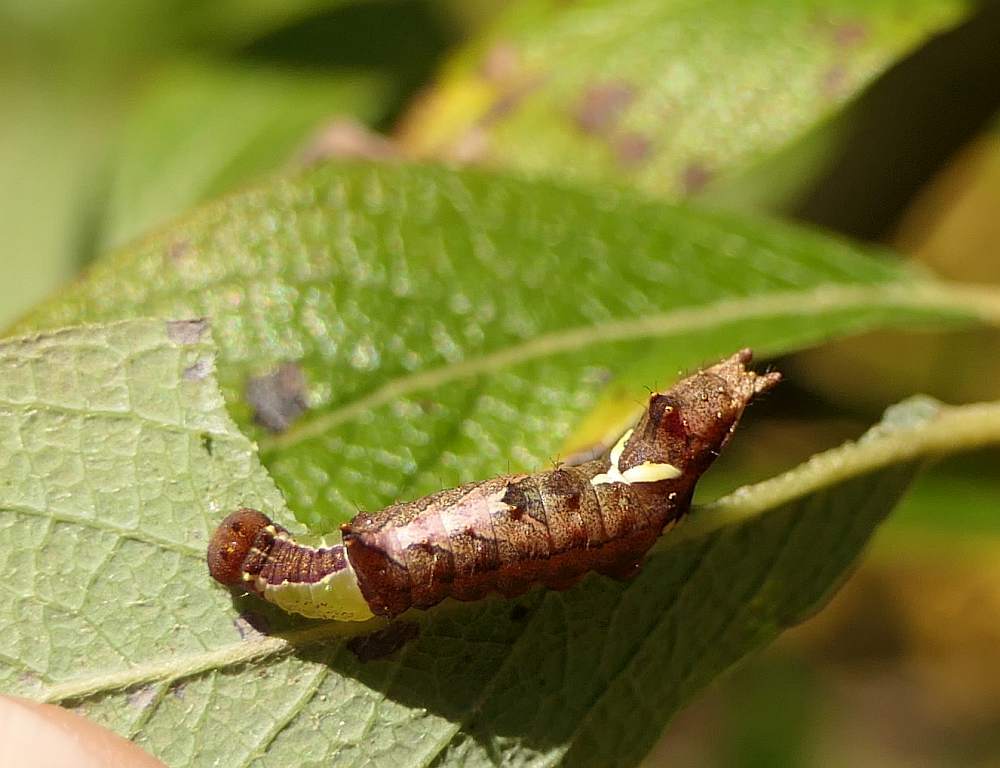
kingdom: Animalia
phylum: Arthropoda
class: Insecta
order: Lepidoptera
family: Notodontidae
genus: Schizura
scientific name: Schizura
